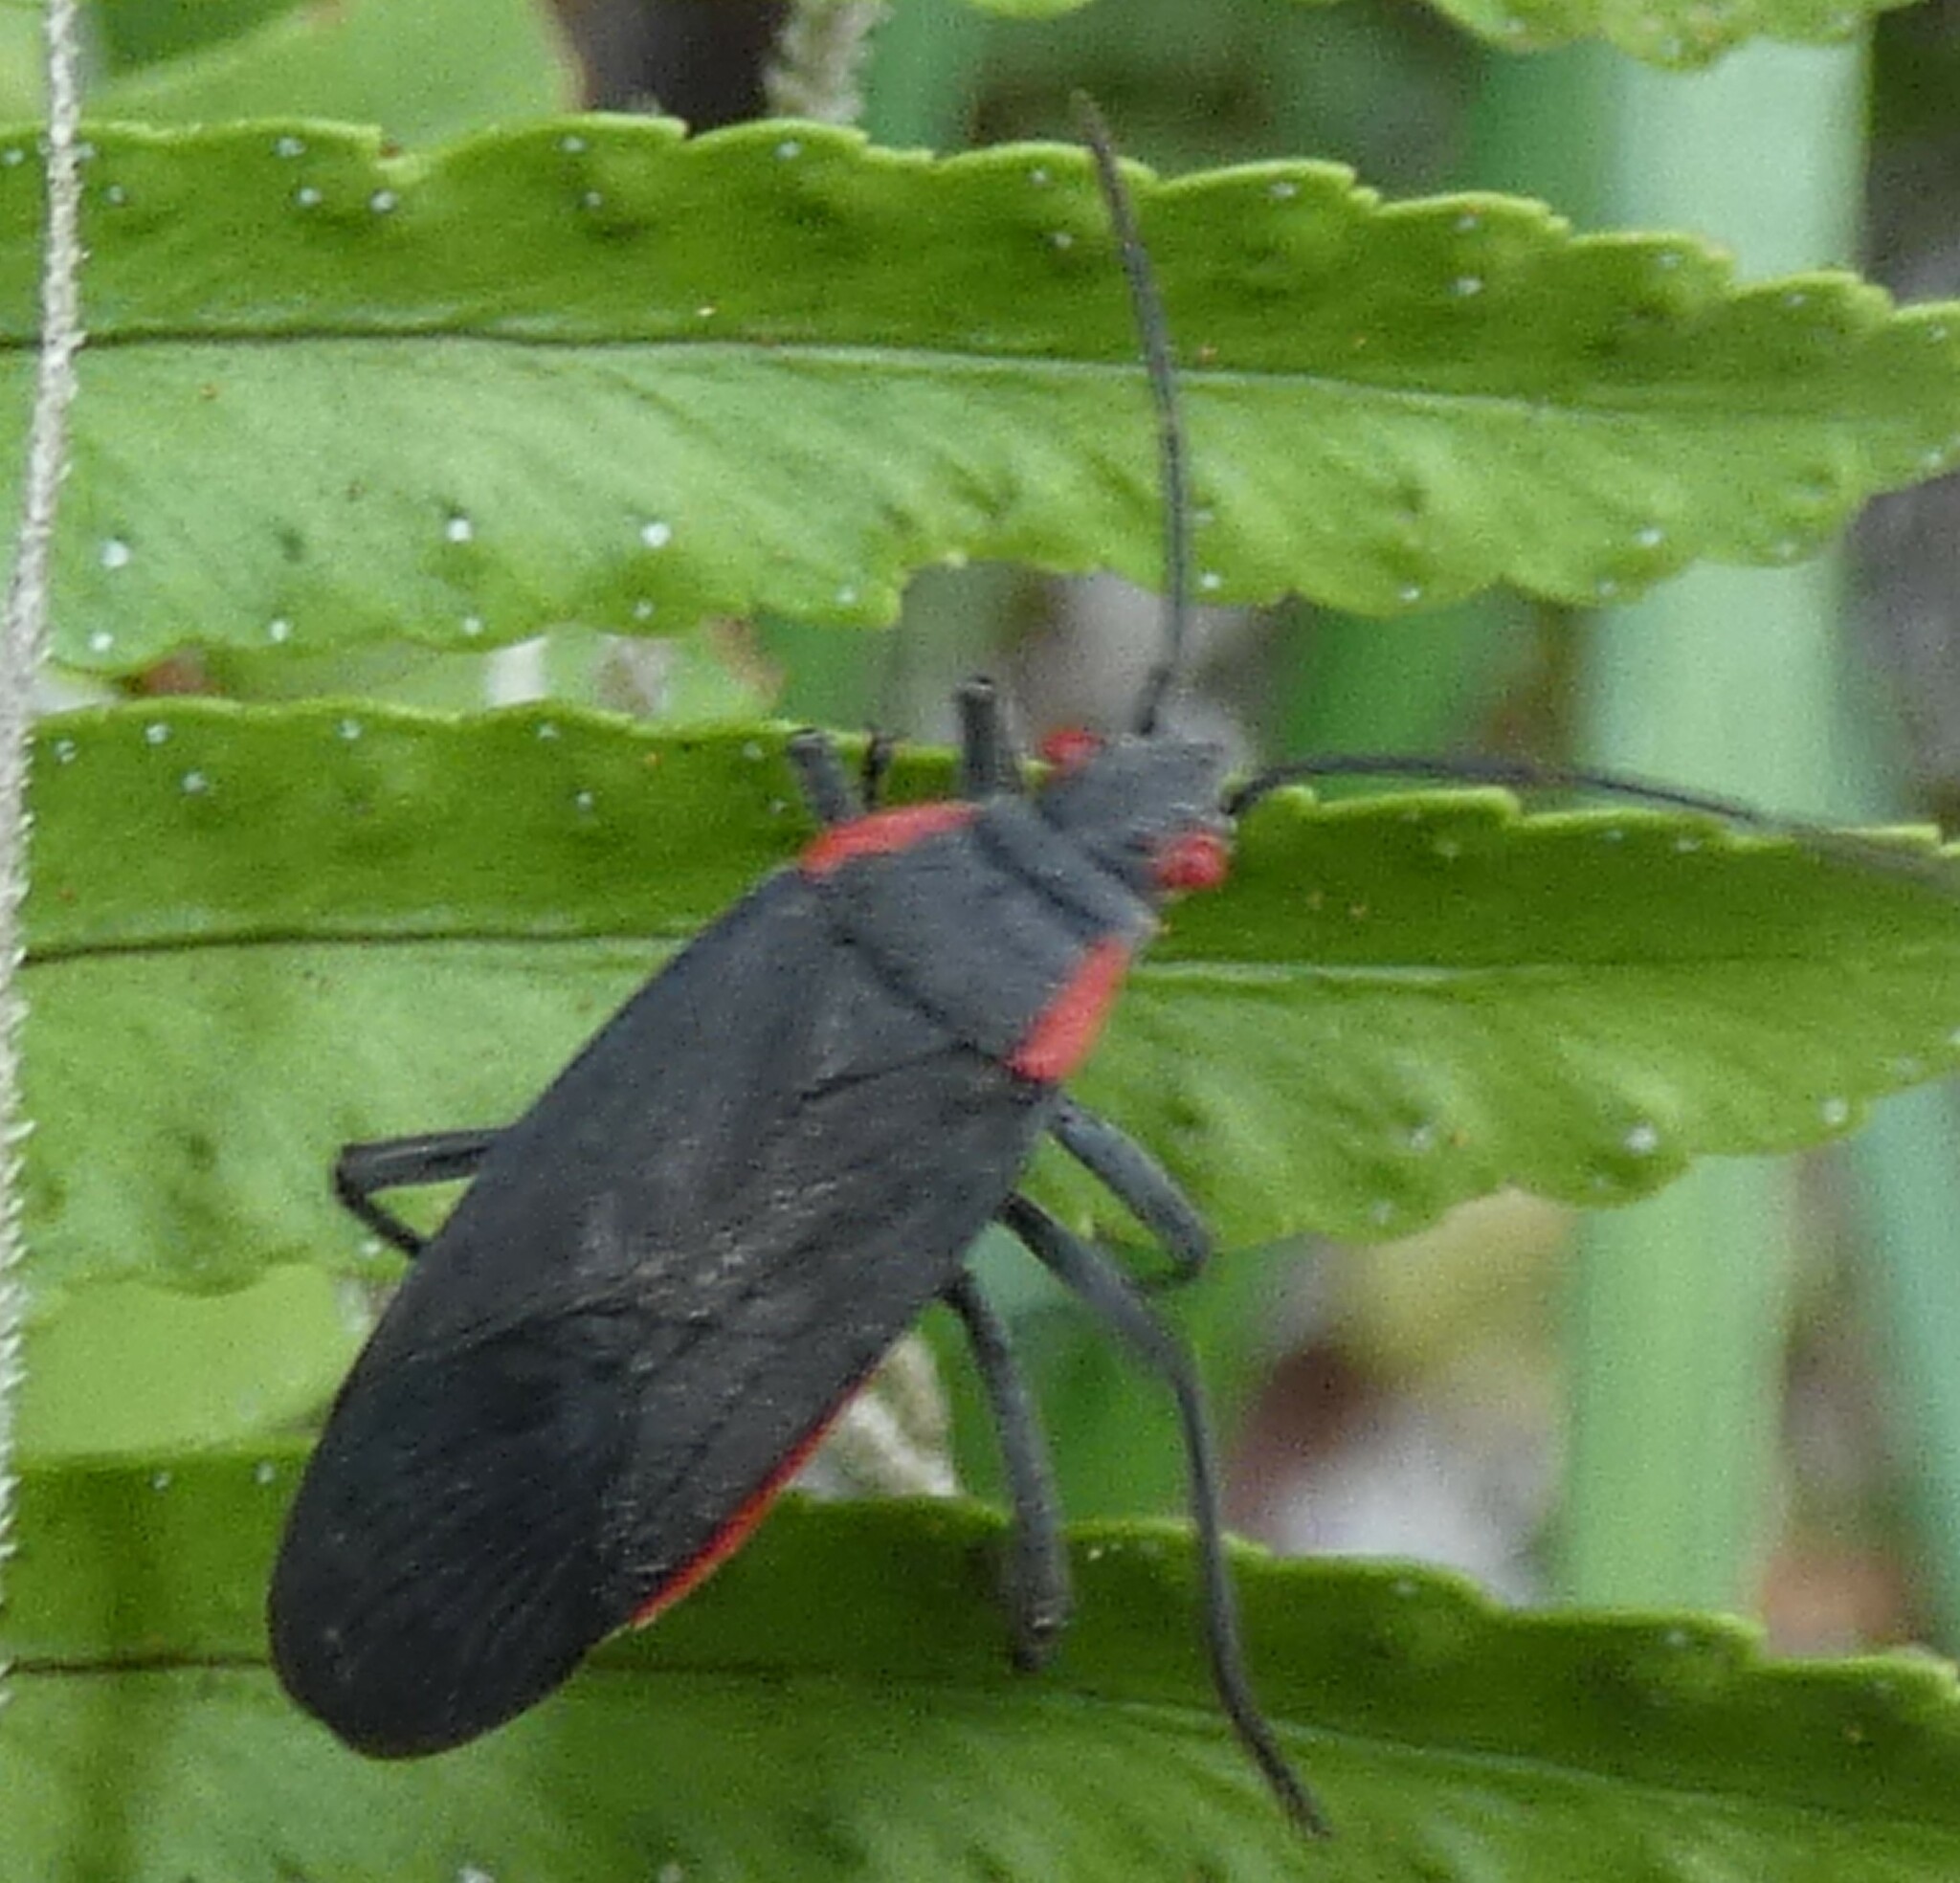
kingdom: Animalia
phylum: Arthropoda
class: Insecta
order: Hemiptera
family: Rhopalidae
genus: Jadera
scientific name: Jadera haematoloma
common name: Red-shouldered bug
